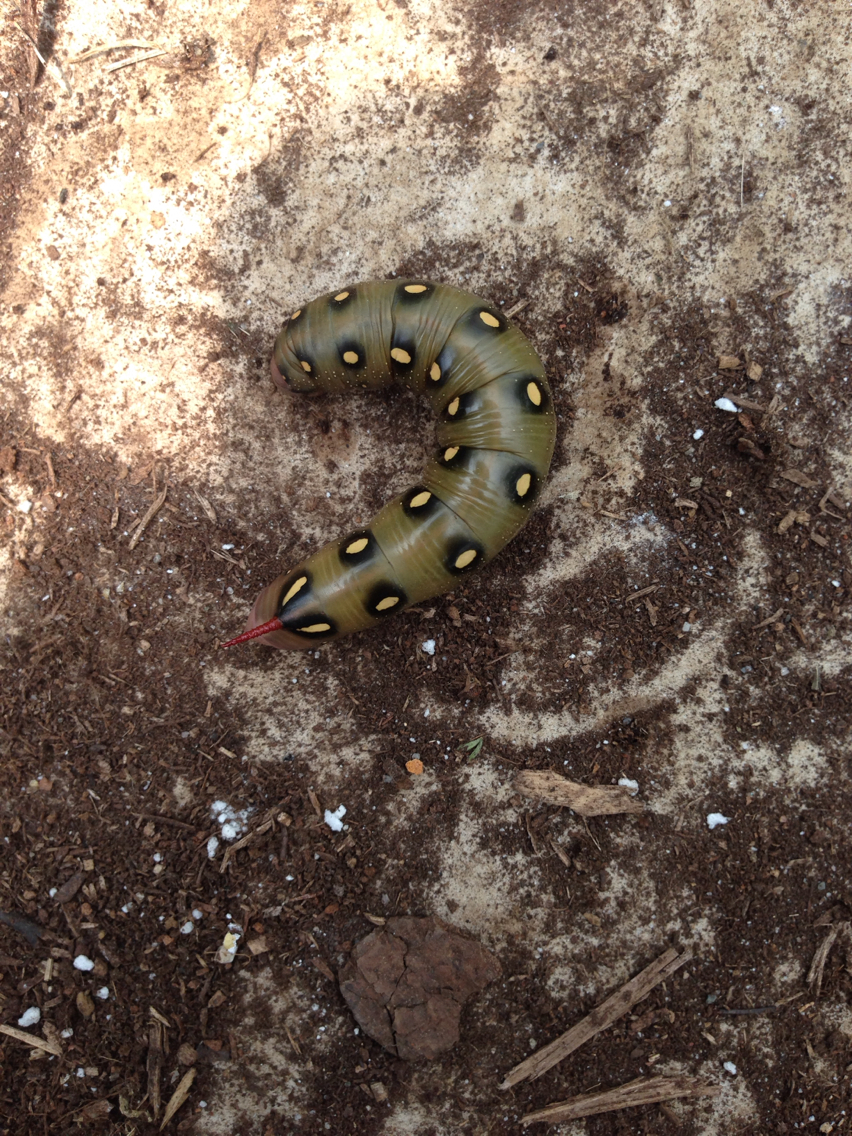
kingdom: Animalia
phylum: Arthropoda
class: Insecta
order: Lepidoptera
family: Sphingidae
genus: Hyles
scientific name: Hyles gallii
